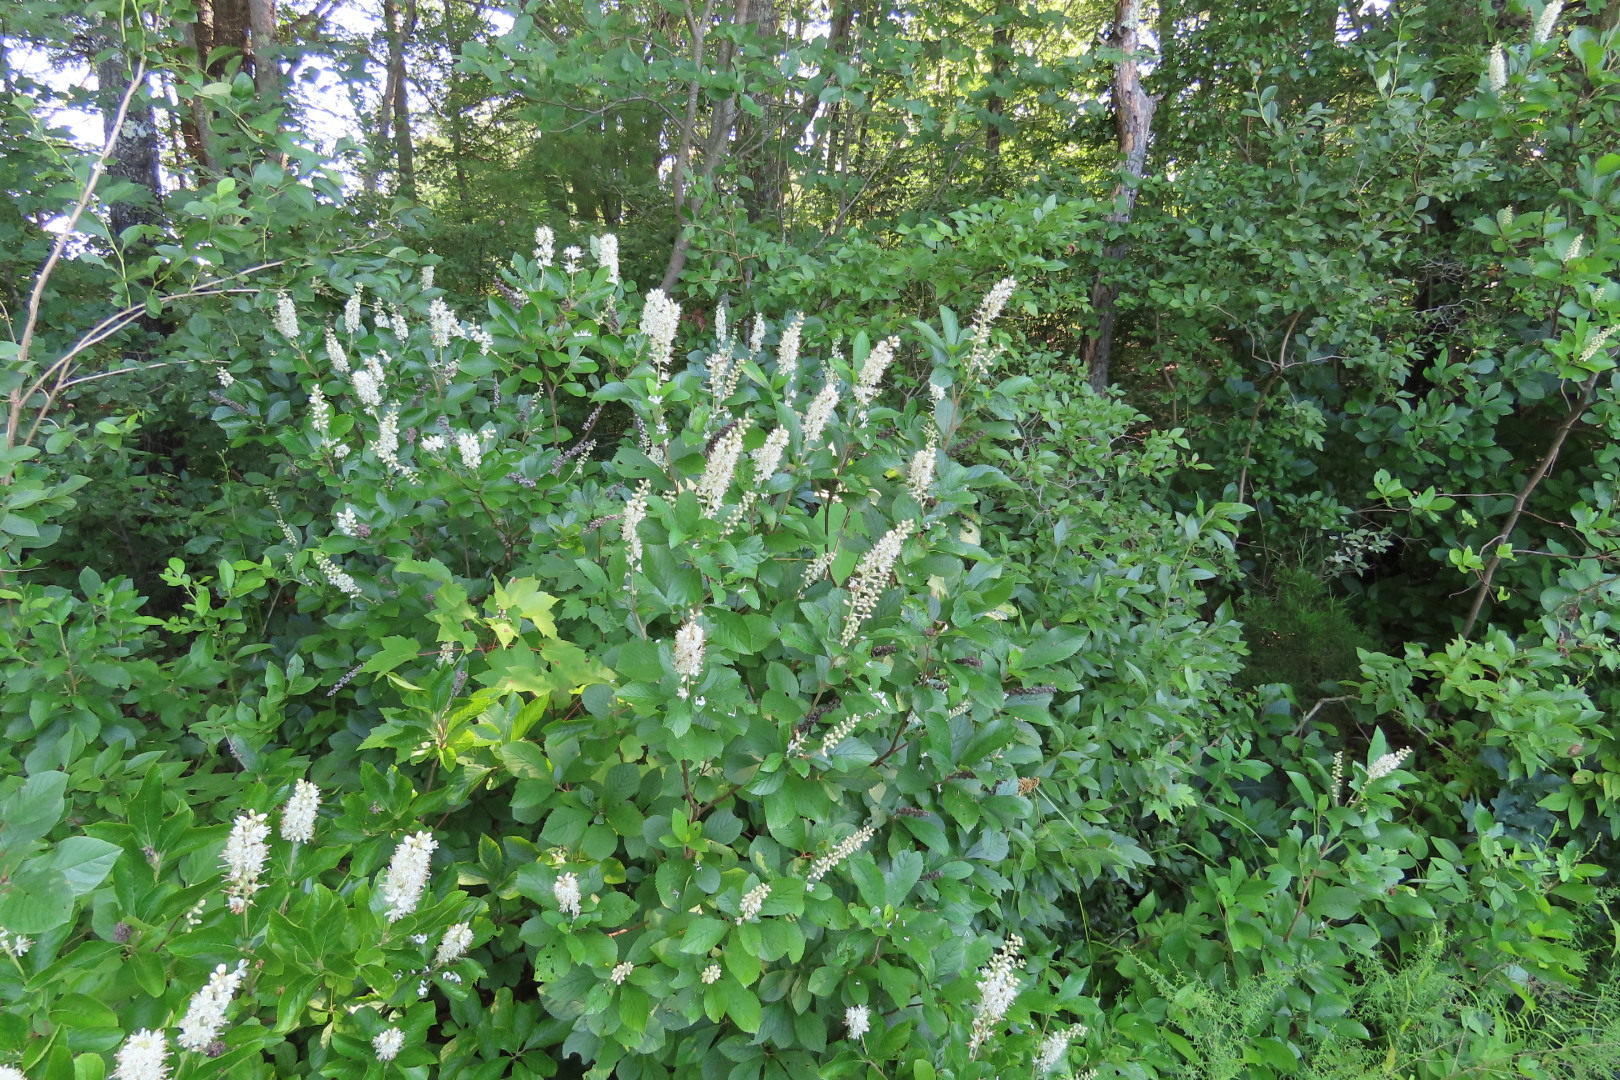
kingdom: Plantae
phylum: Tracheophyta
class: Magnoliopsida
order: Ericales
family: Clethraceae
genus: Clethra
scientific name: Clethra alnifolia
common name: Sweet pepperbush
